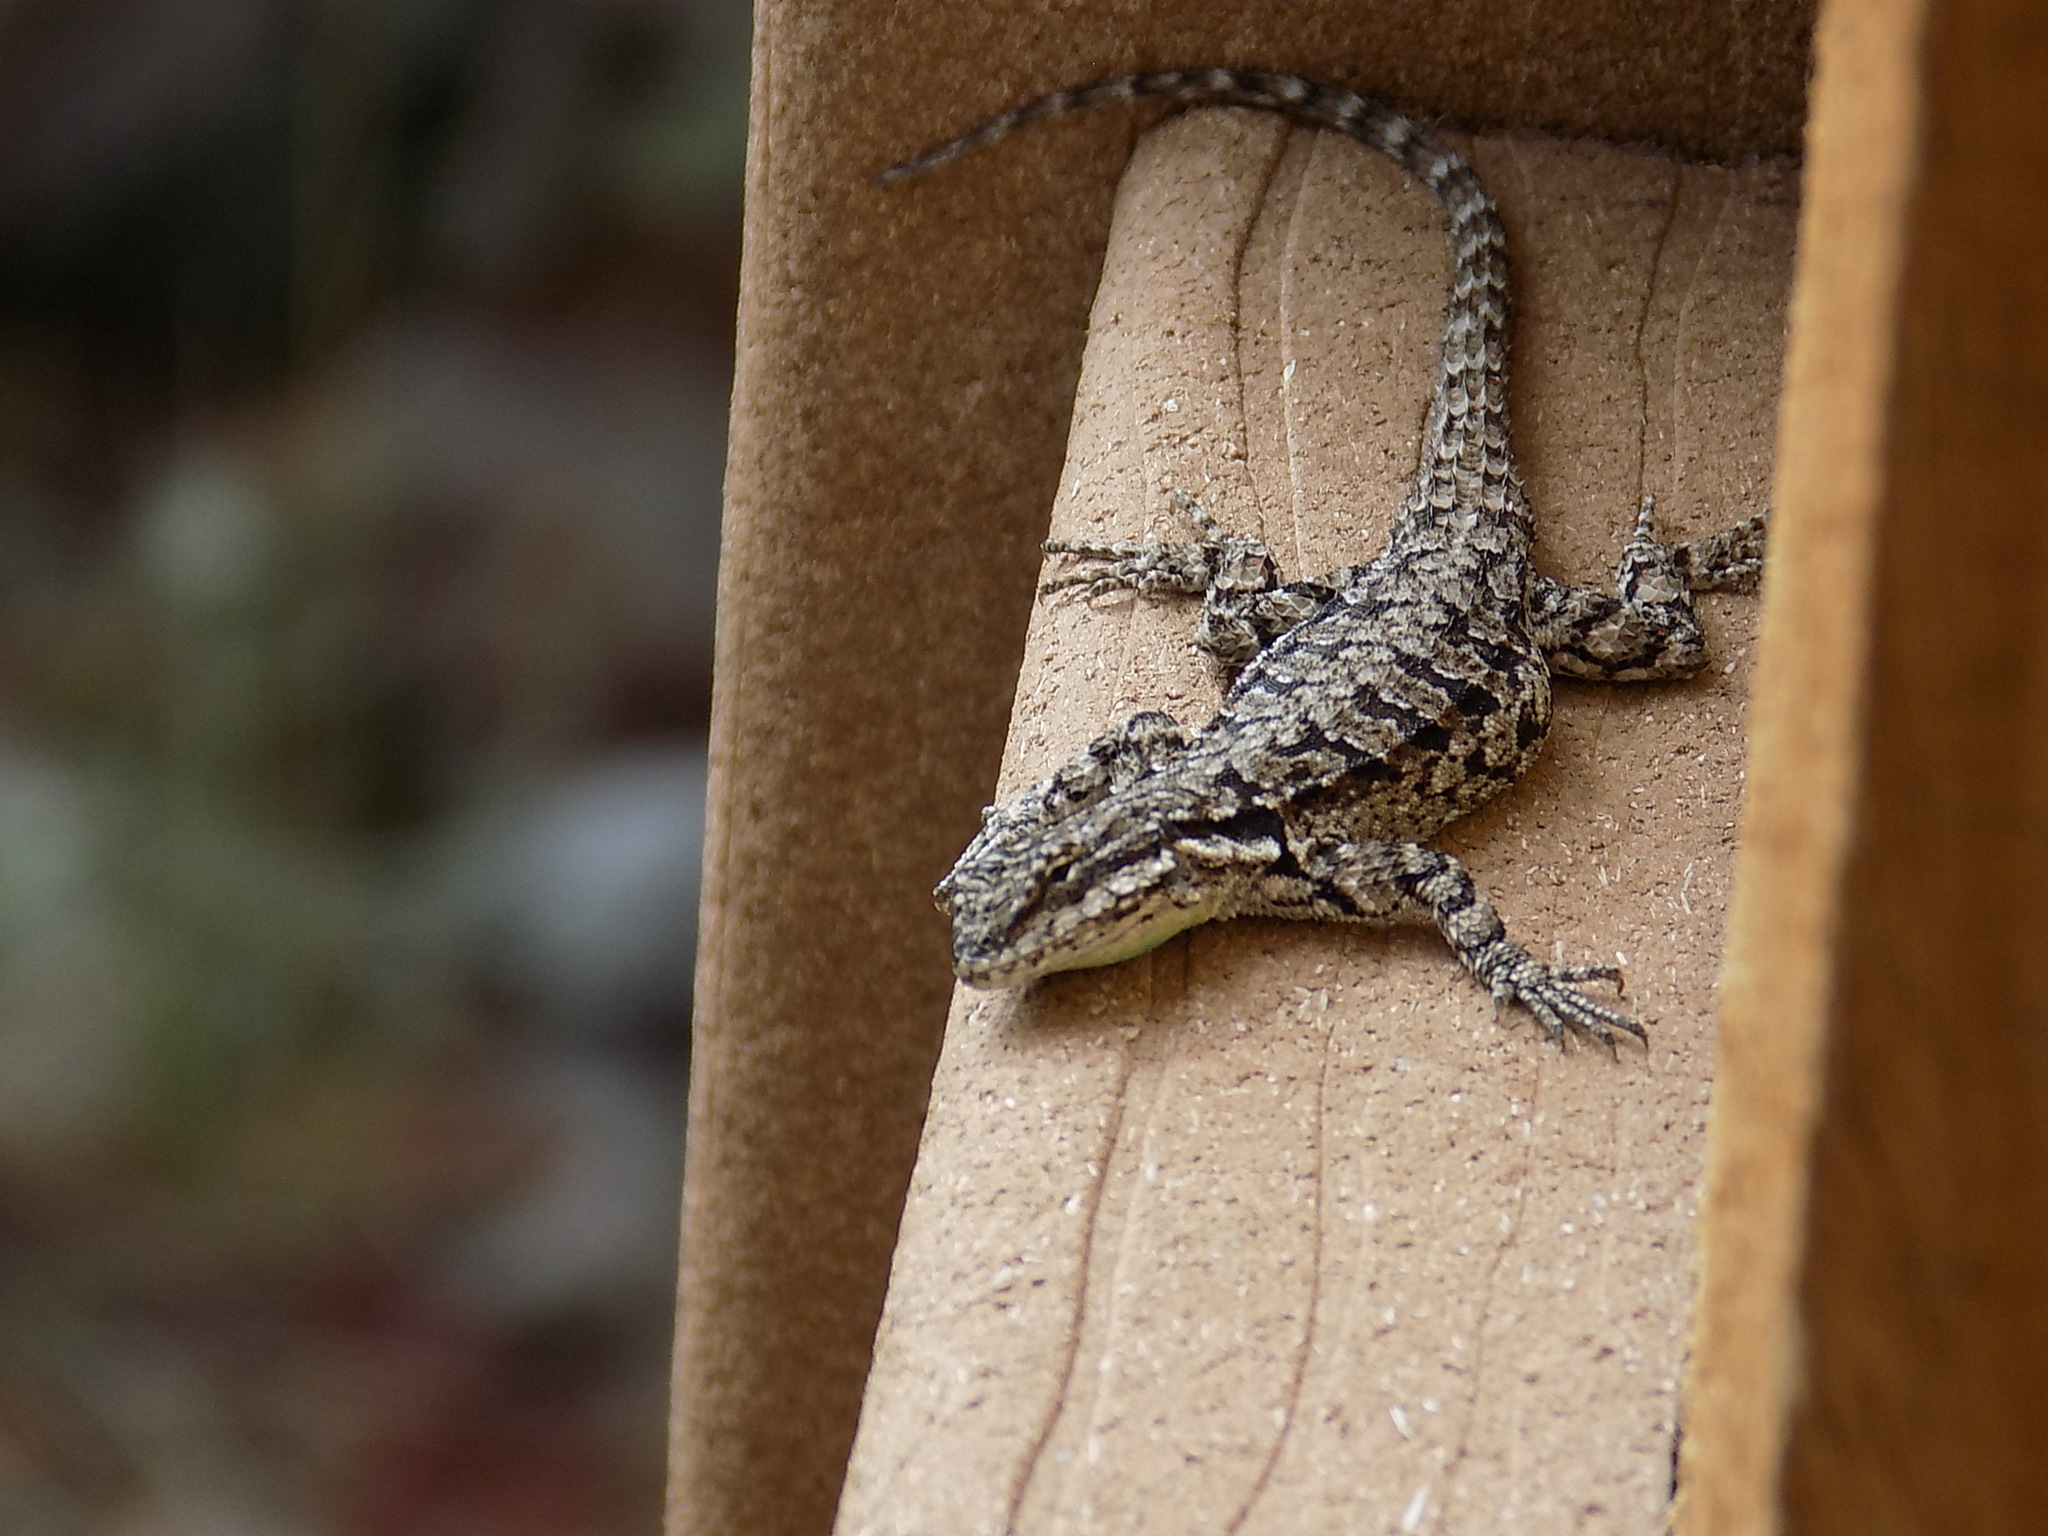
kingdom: Animalia
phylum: Chordata
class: Squamata
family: Phrynosomatidae
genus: Urosaurus
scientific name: Urosaurus ornatus
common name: Ornate tree lizard
